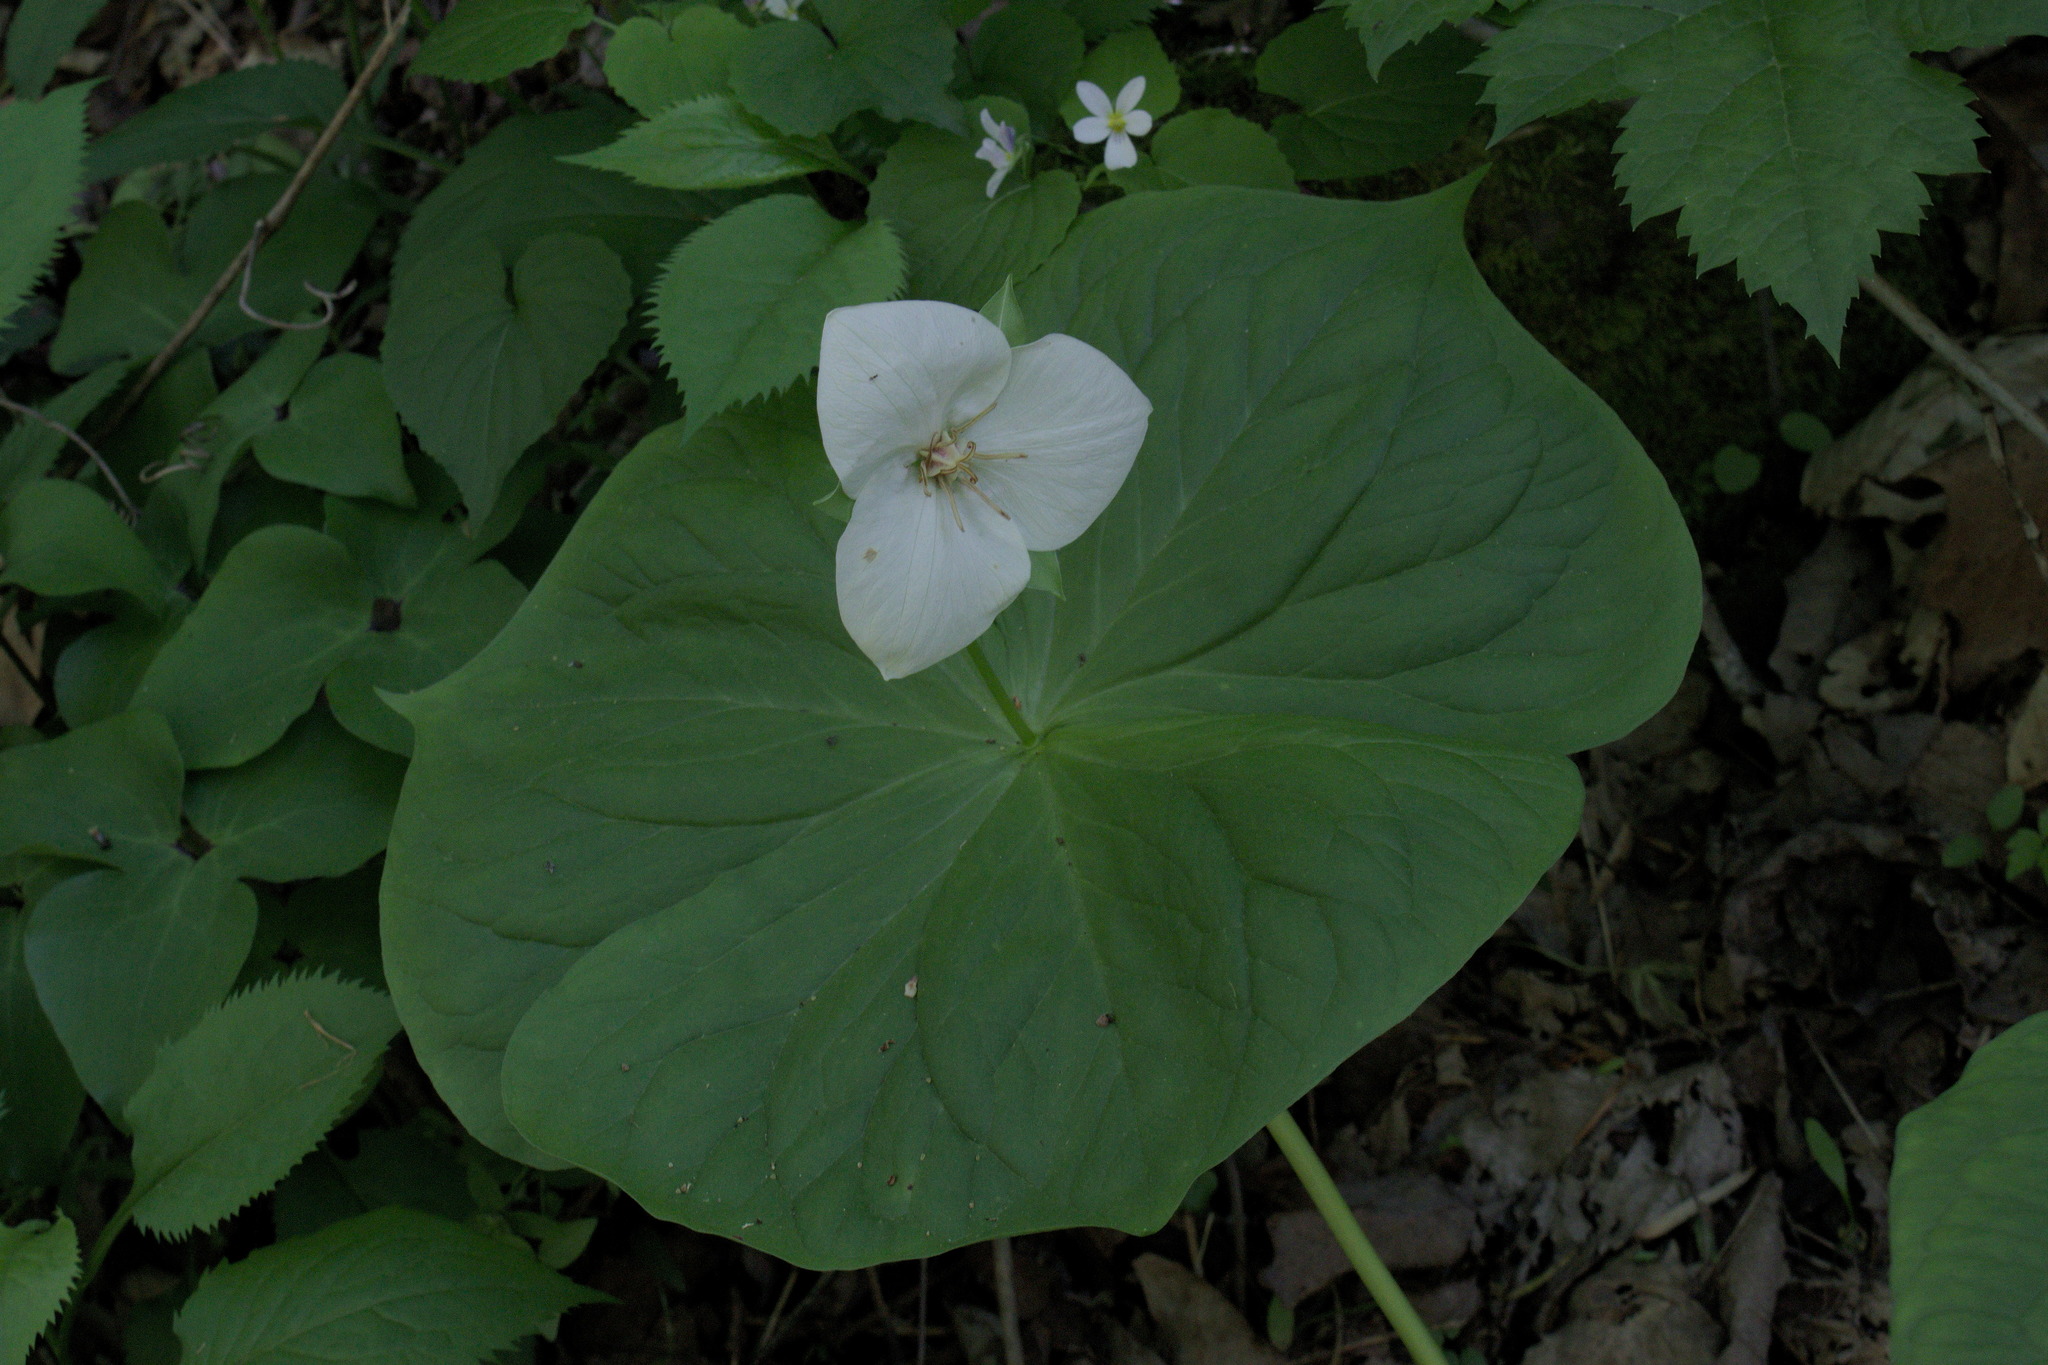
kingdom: Plantae
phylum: Tracheophyta
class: Liliopsida
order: Liliales
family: Melanthiaceae
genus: Trillium
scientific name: Trillium flexipes
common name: Drooping trillium
